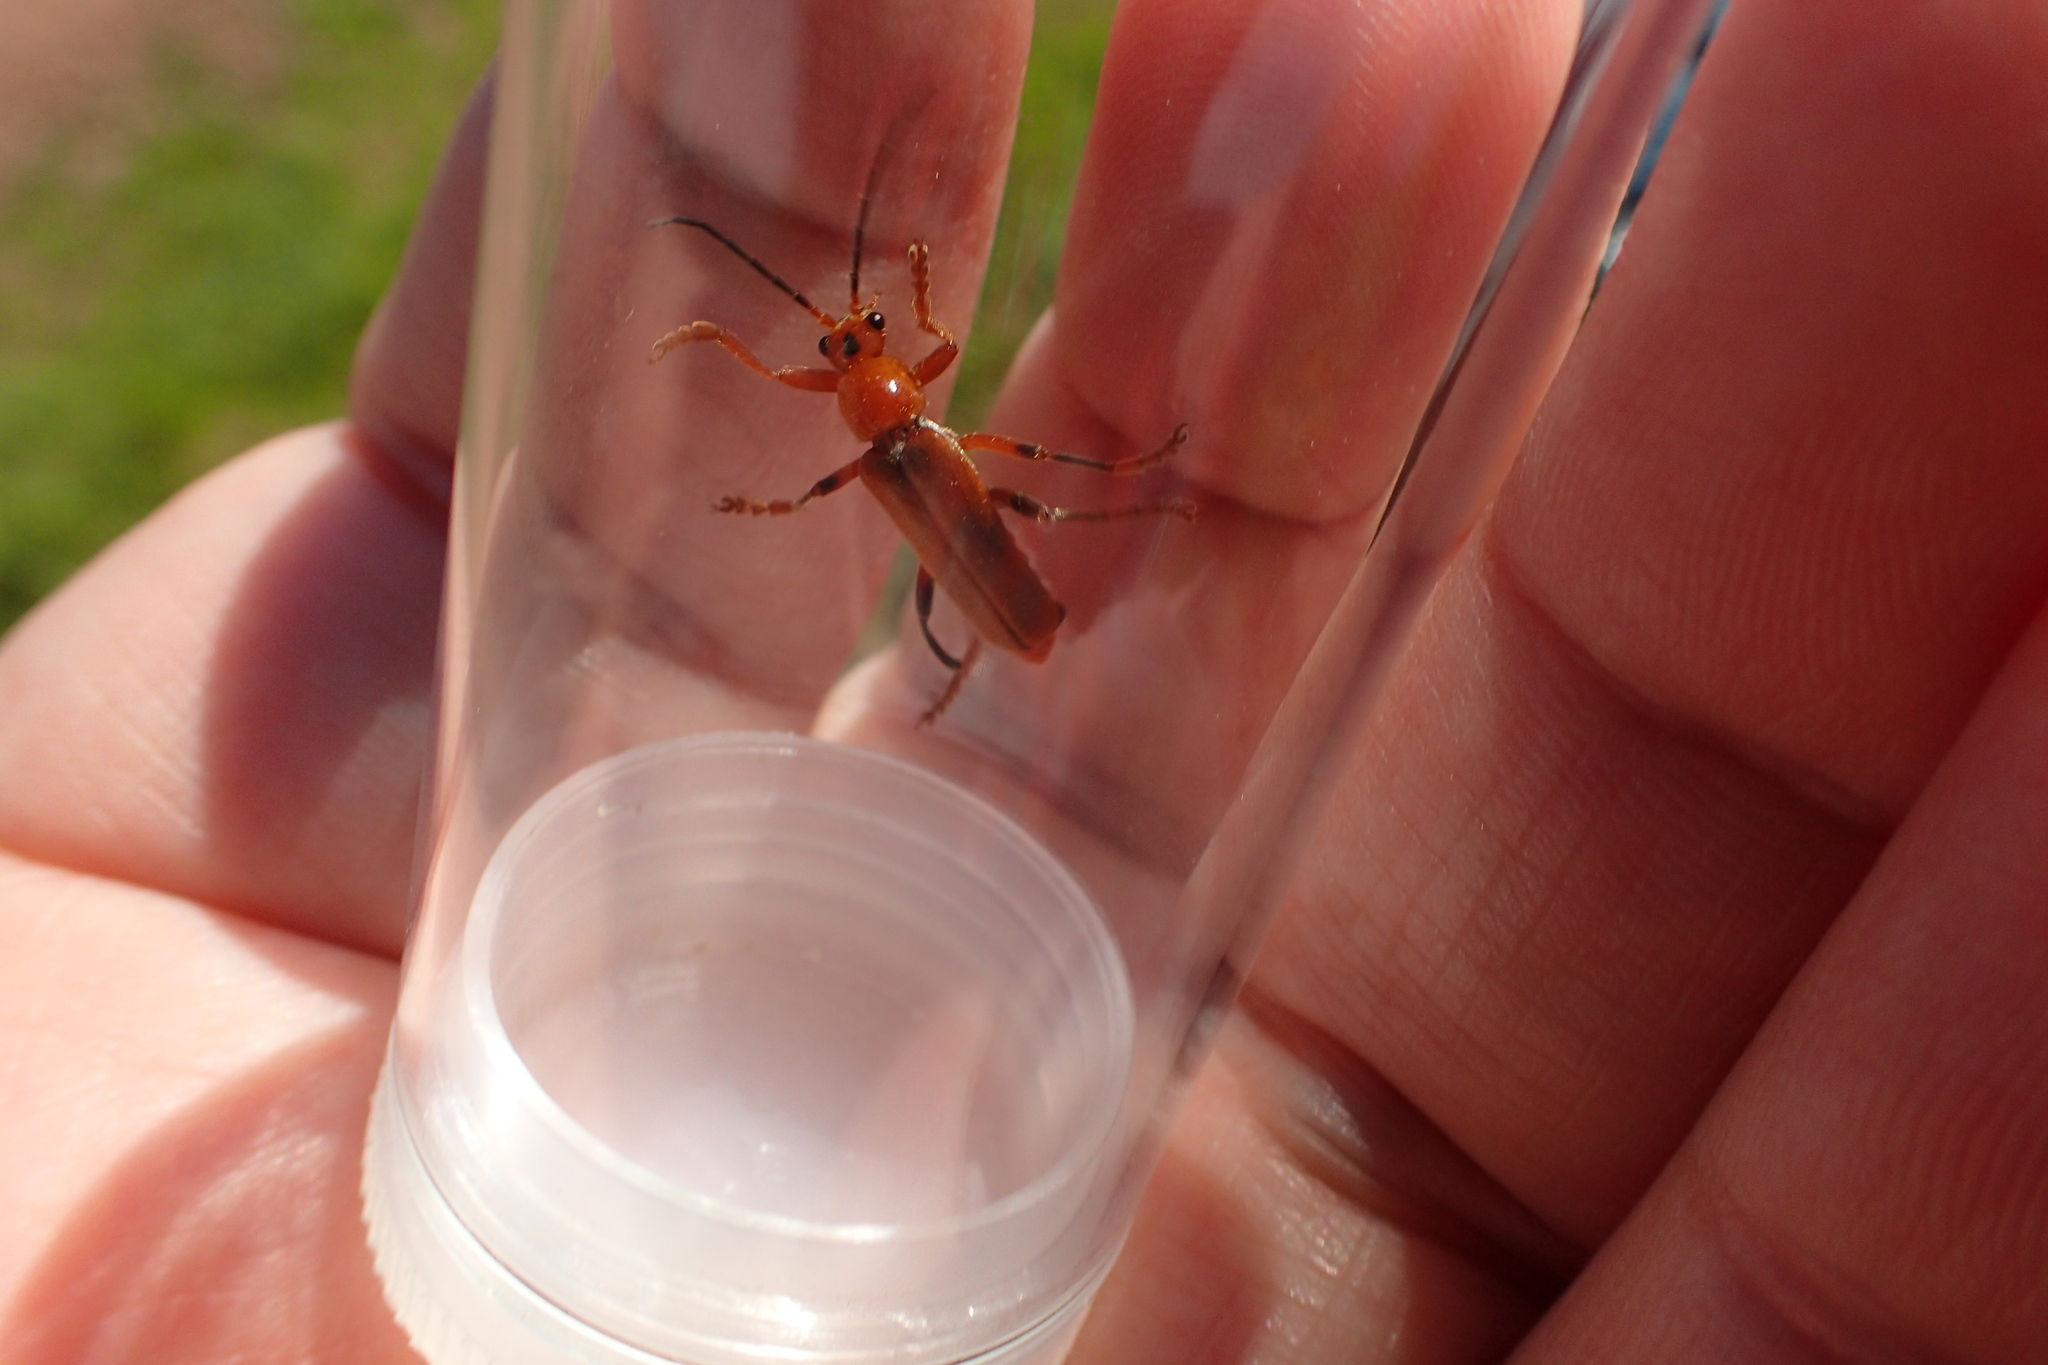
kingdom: Animalia
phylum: Arthropoda
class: Insecta
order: Coleoptera
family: Cantharidae
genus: Cantharis
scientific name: Cantharis livida
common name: Livid soldier beetle
